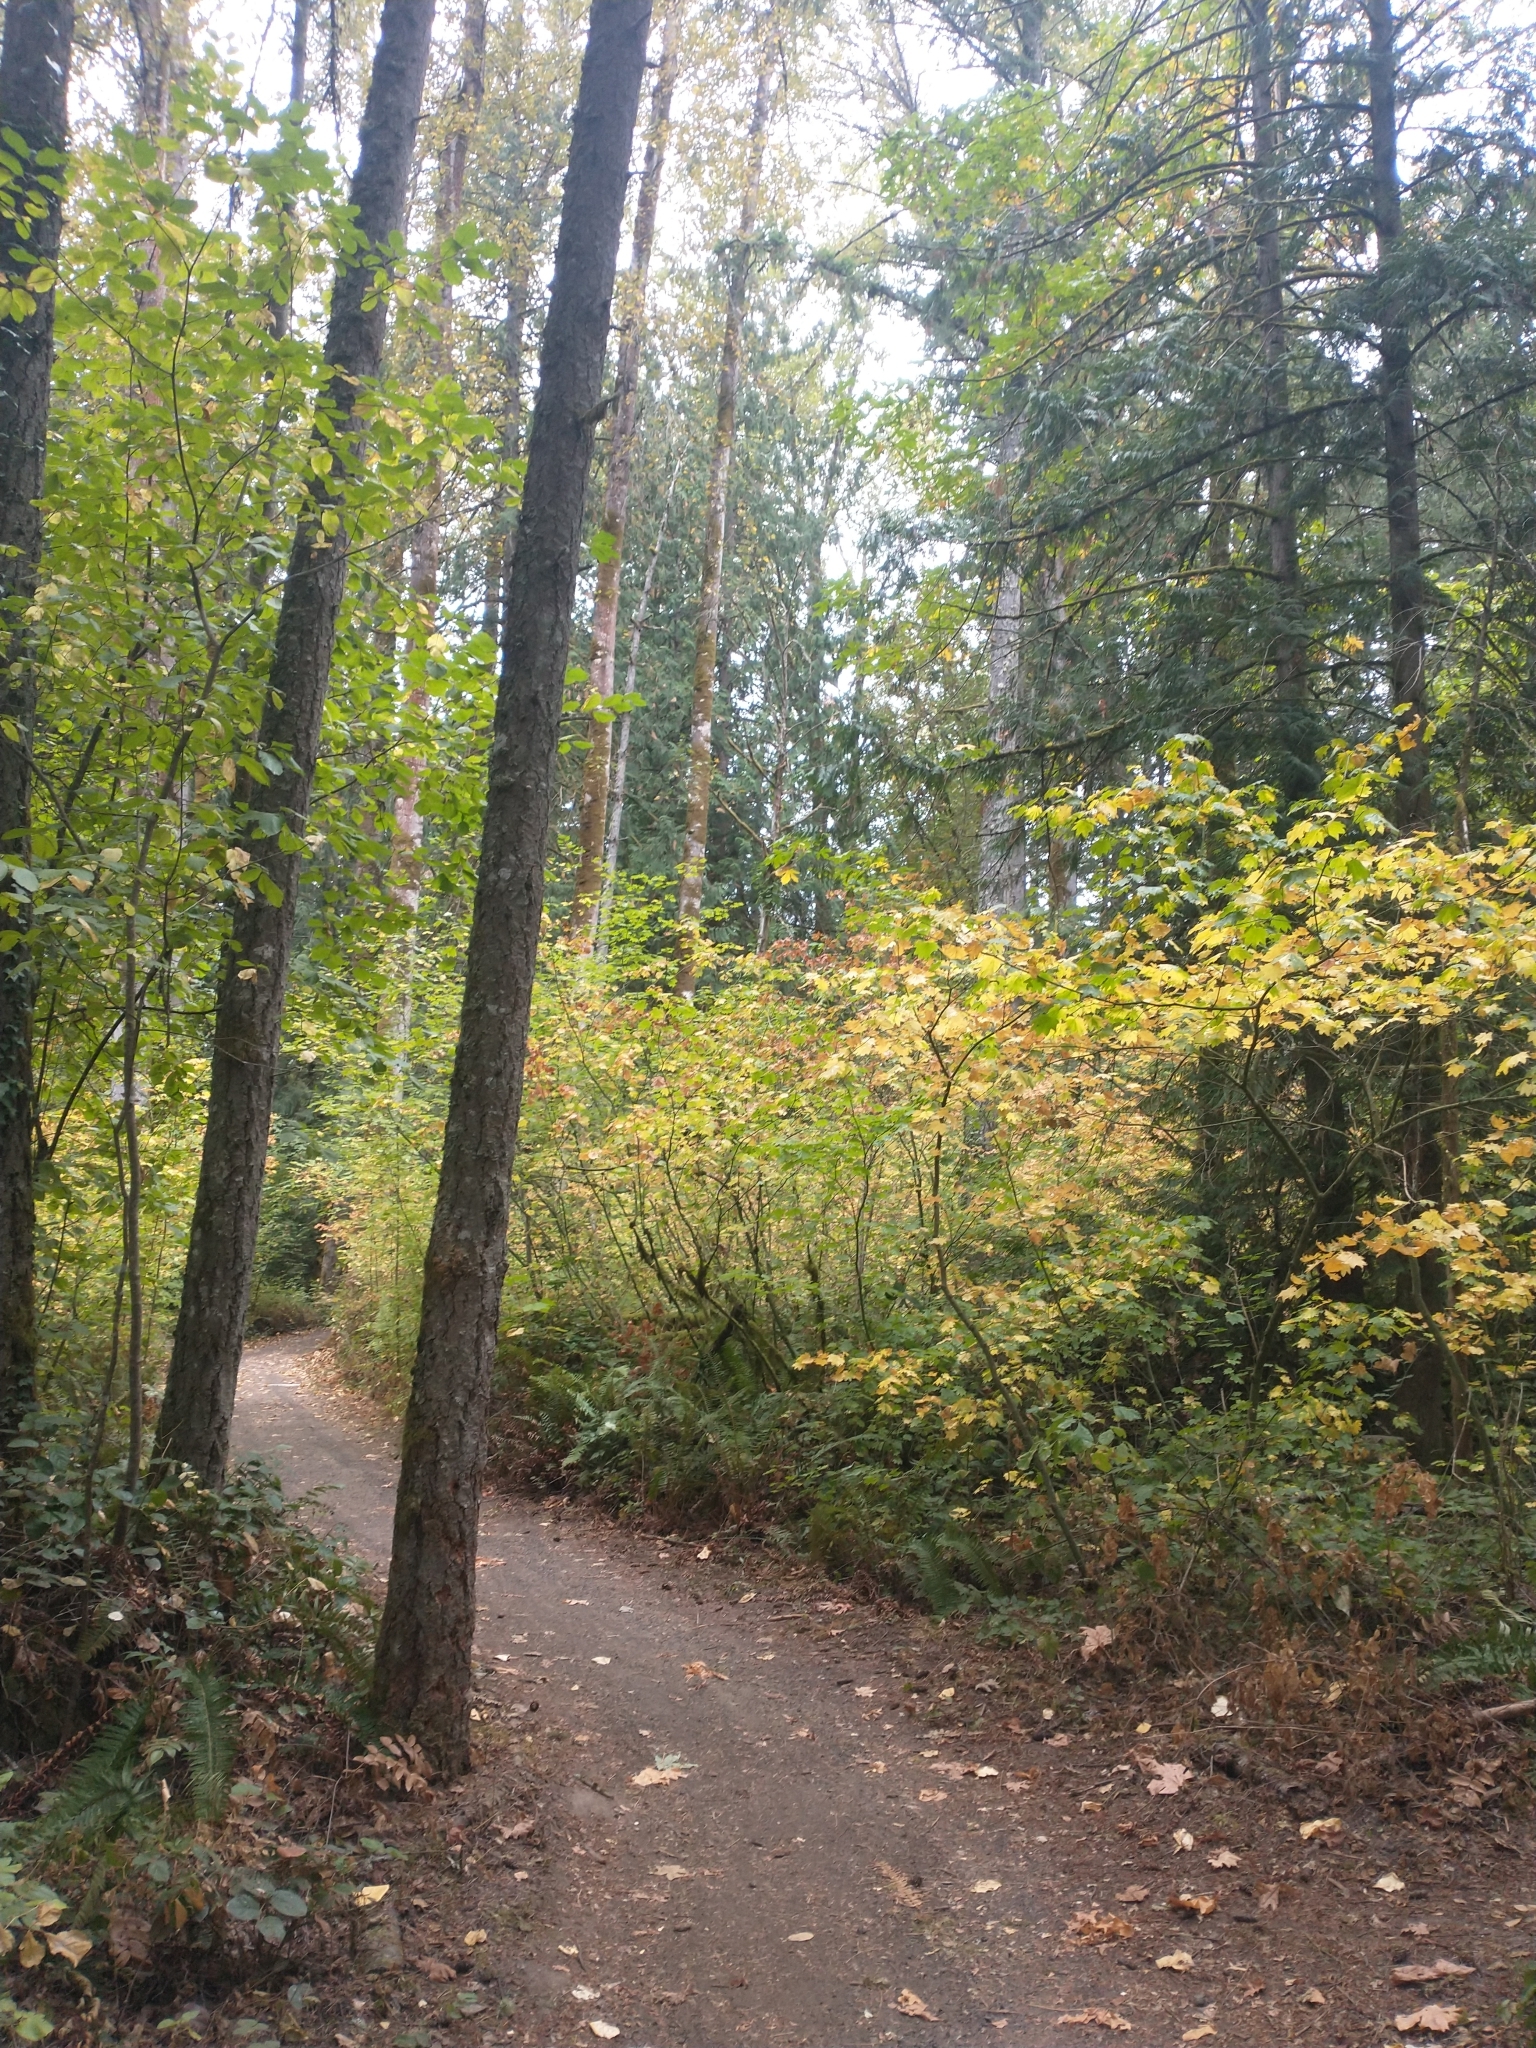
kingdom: Plantae
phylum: Tracheophyta
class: Magnoliopsida
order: Sapindales
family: Sapindaceae
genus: Acer
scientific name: Acer circinatum
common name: Vine maple
